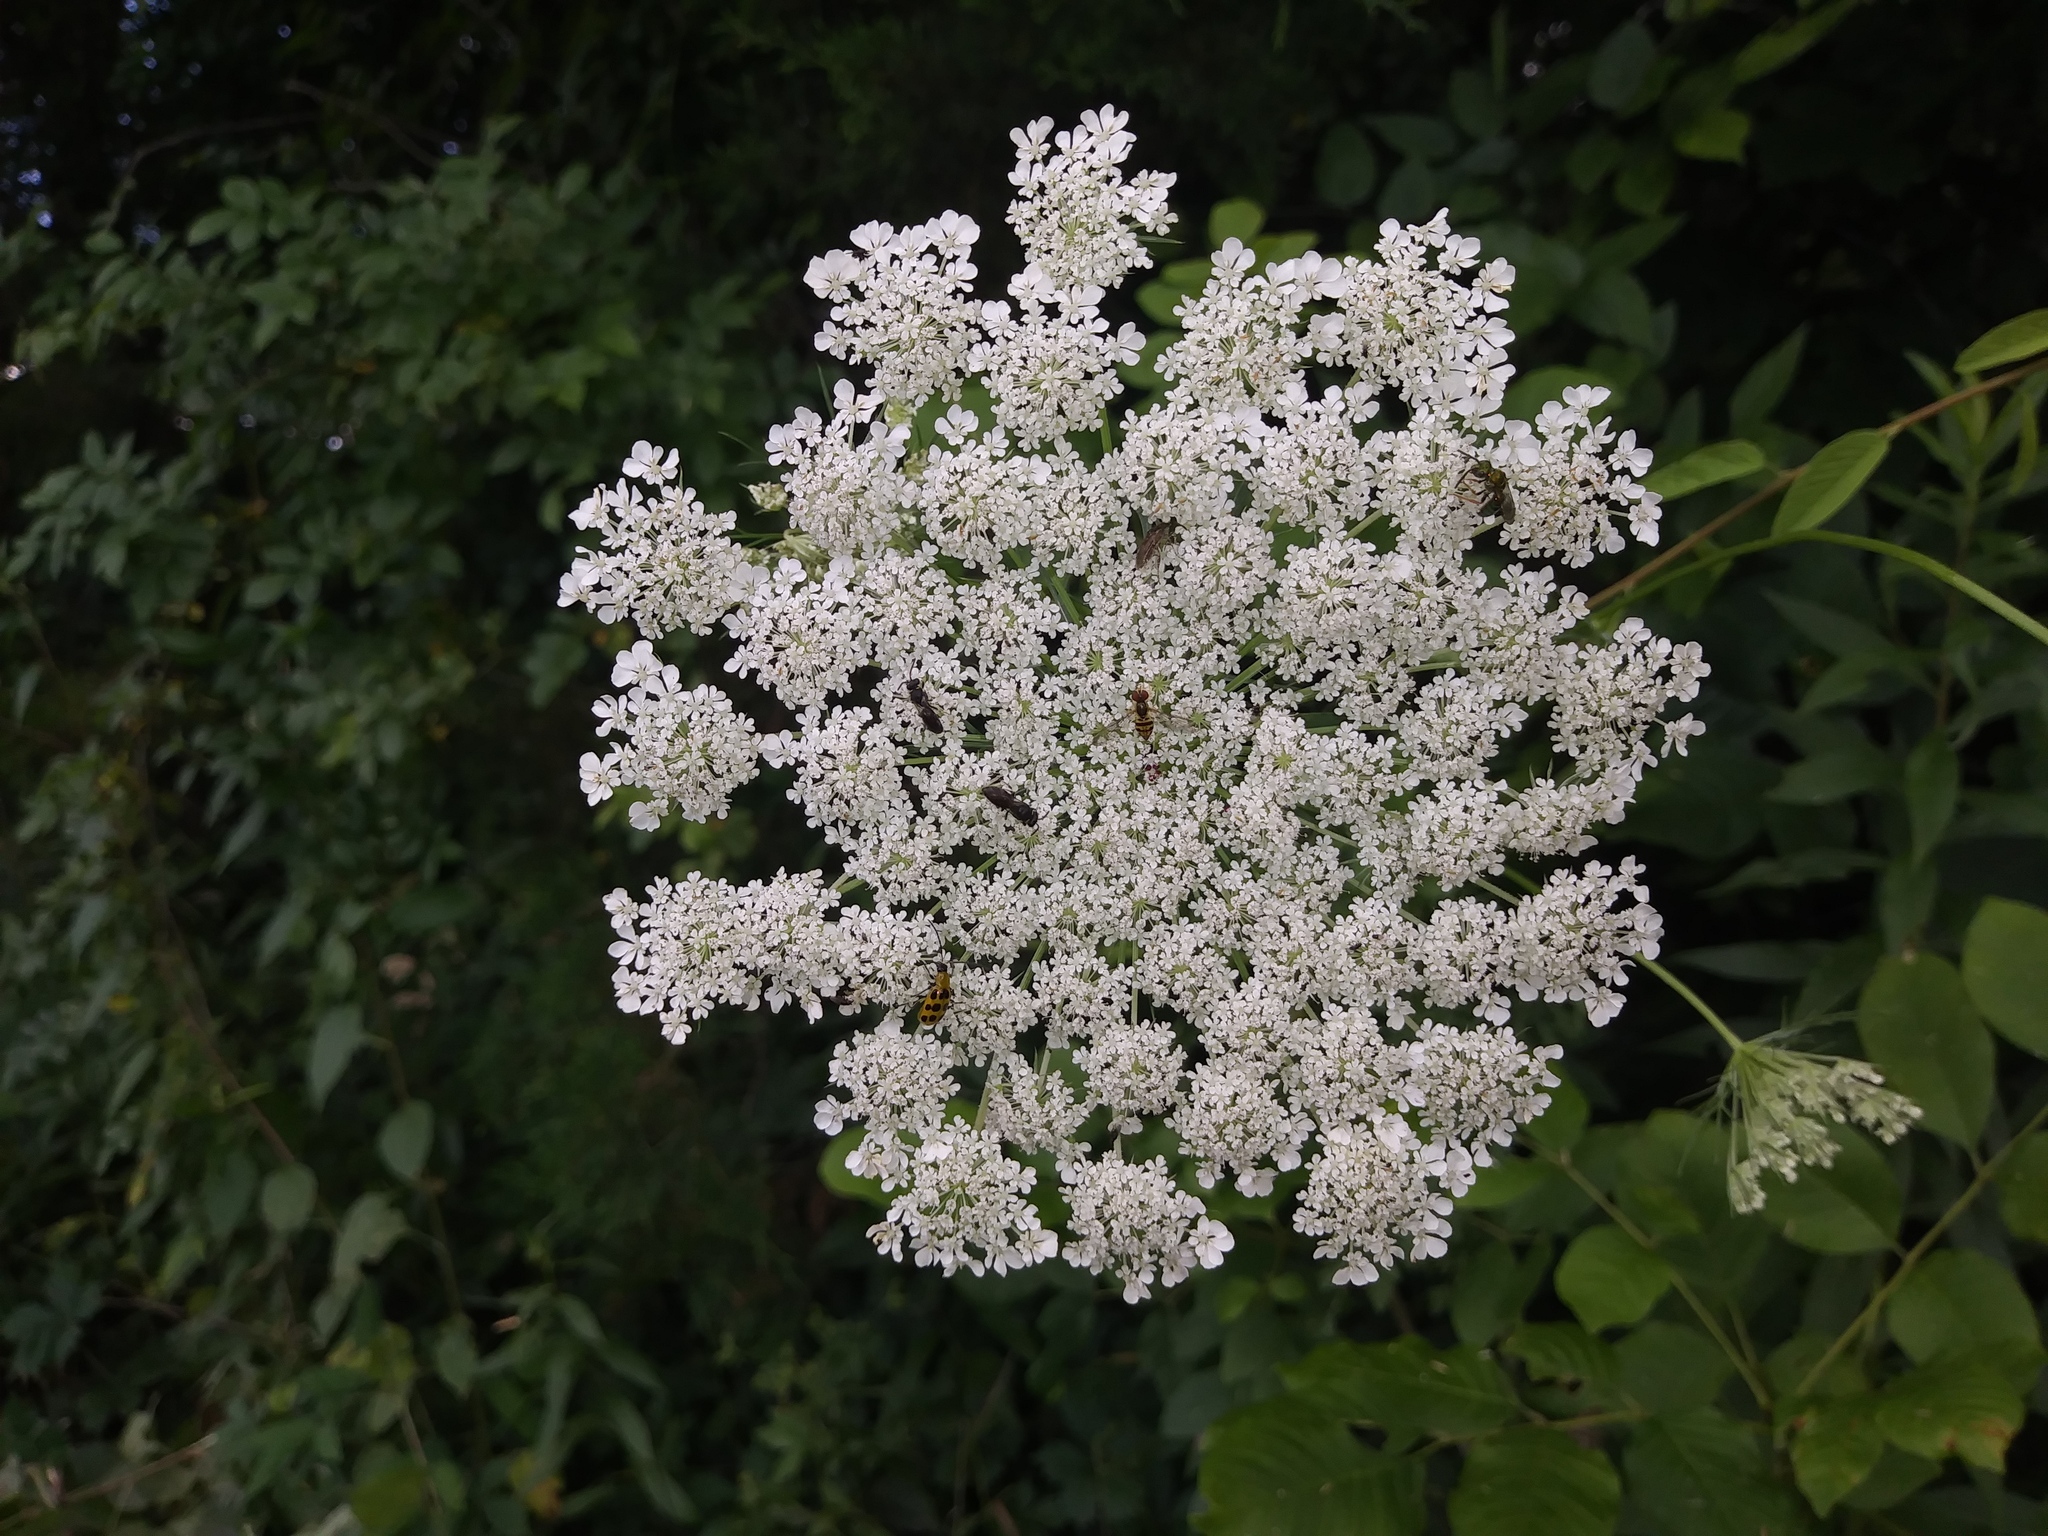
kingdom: Plantae
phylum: Tracheophyta
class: Magnoliopsida
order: Apiales
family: Apiaceae
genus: Daucus
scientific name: Daucus carota
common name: Wild carrot
